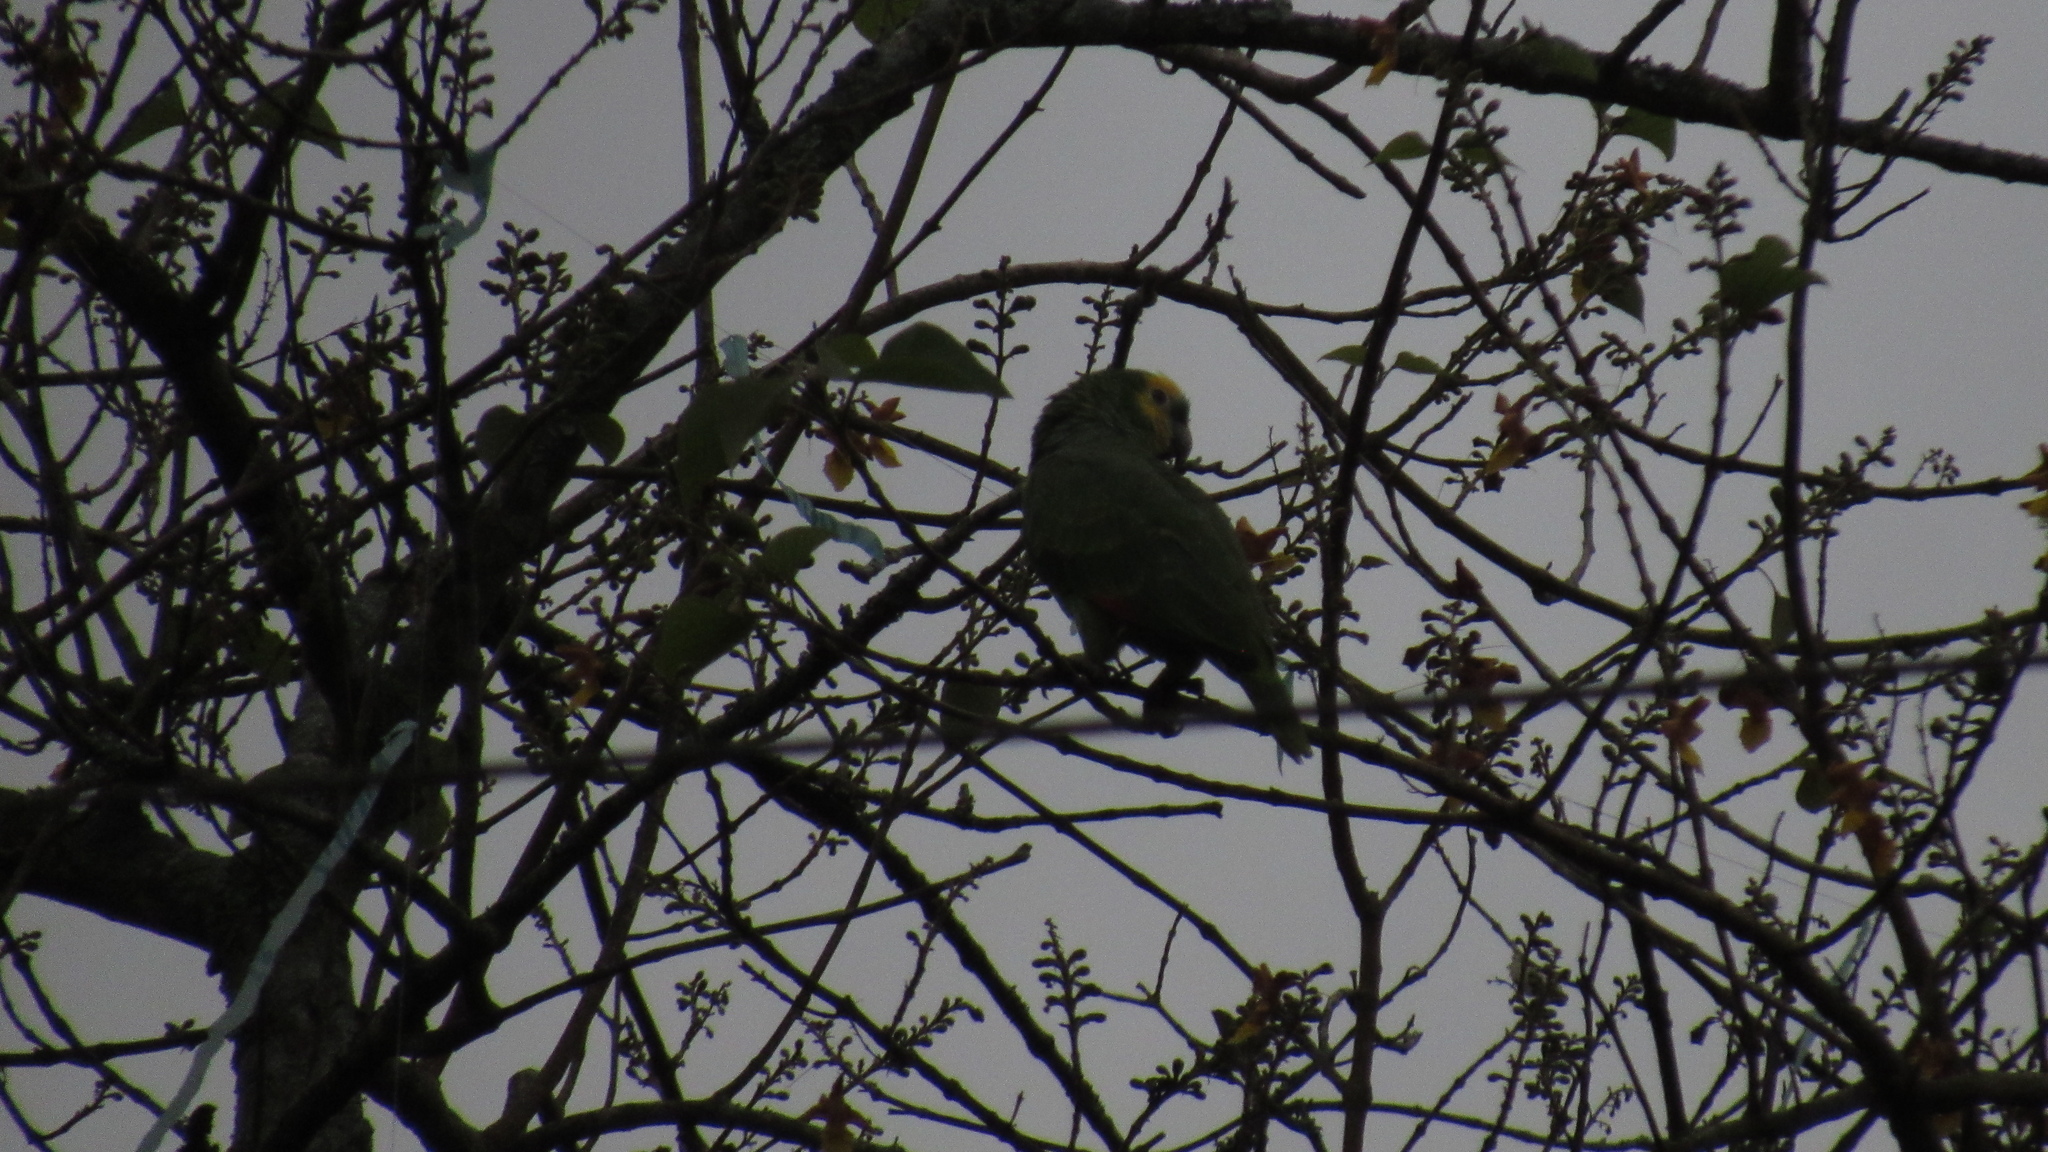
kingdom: Animalia
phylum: Chordata
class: Aves
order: Psittaciformes
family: Psittacidae
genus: Amazona
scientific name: Amazona amazonica
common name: Orange-winged amazon
